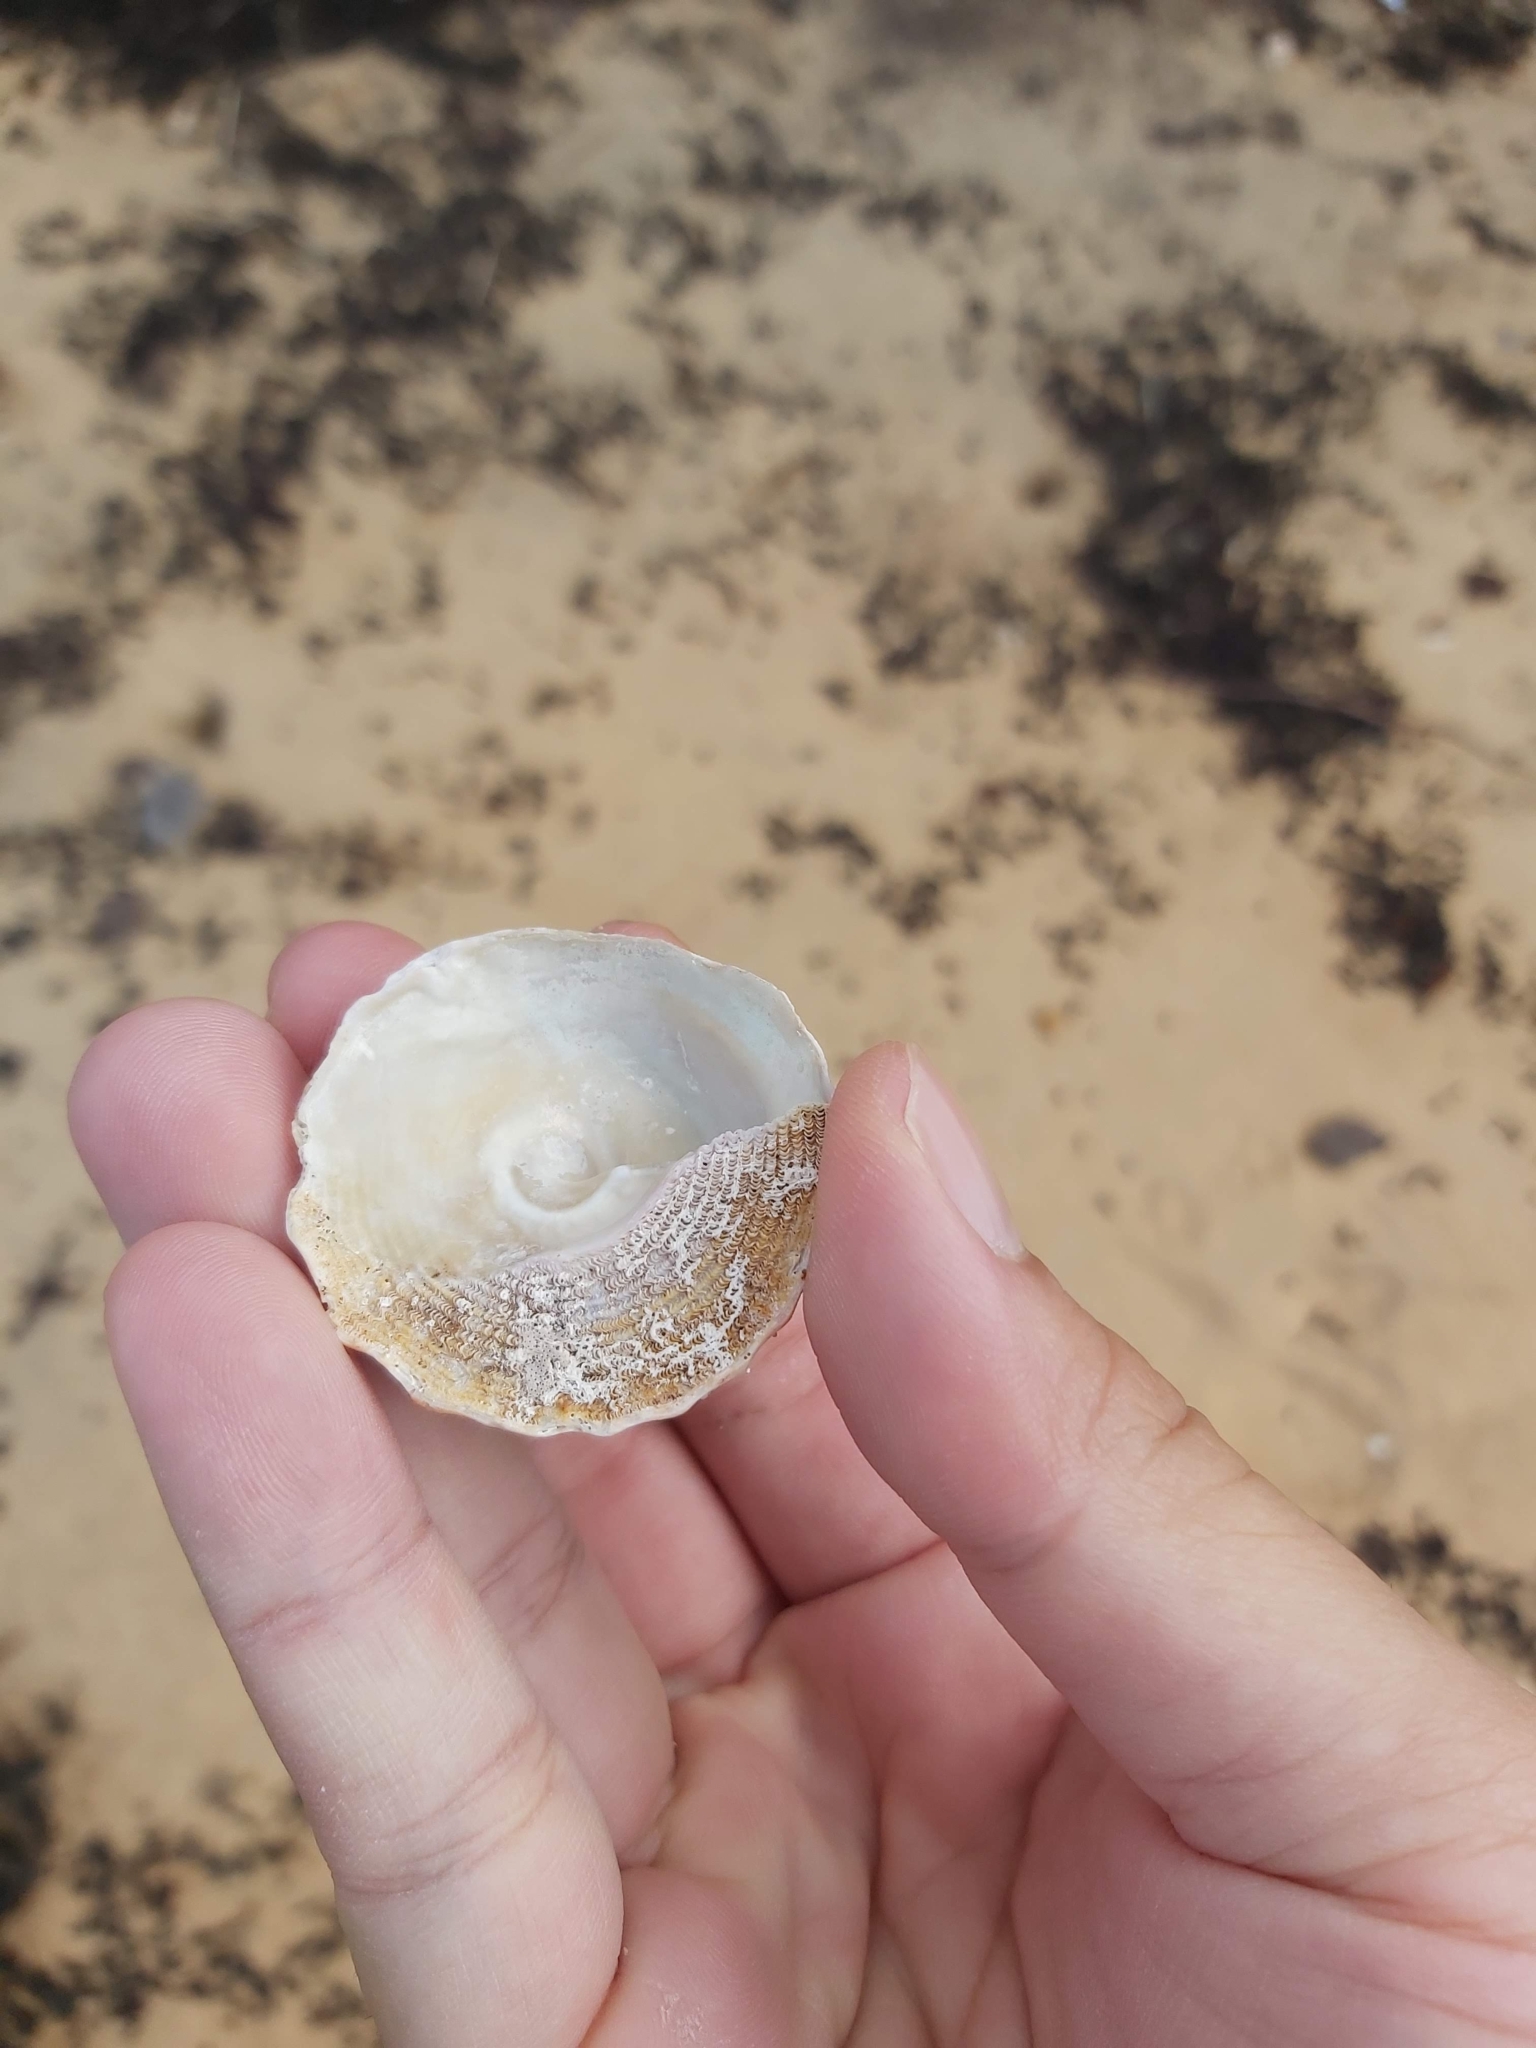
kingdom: Animalia
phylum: Mollusca
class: Gastropoda
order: Trochida
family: Turbinidae
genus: Astralium
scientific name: Astralium tentoriiforme
